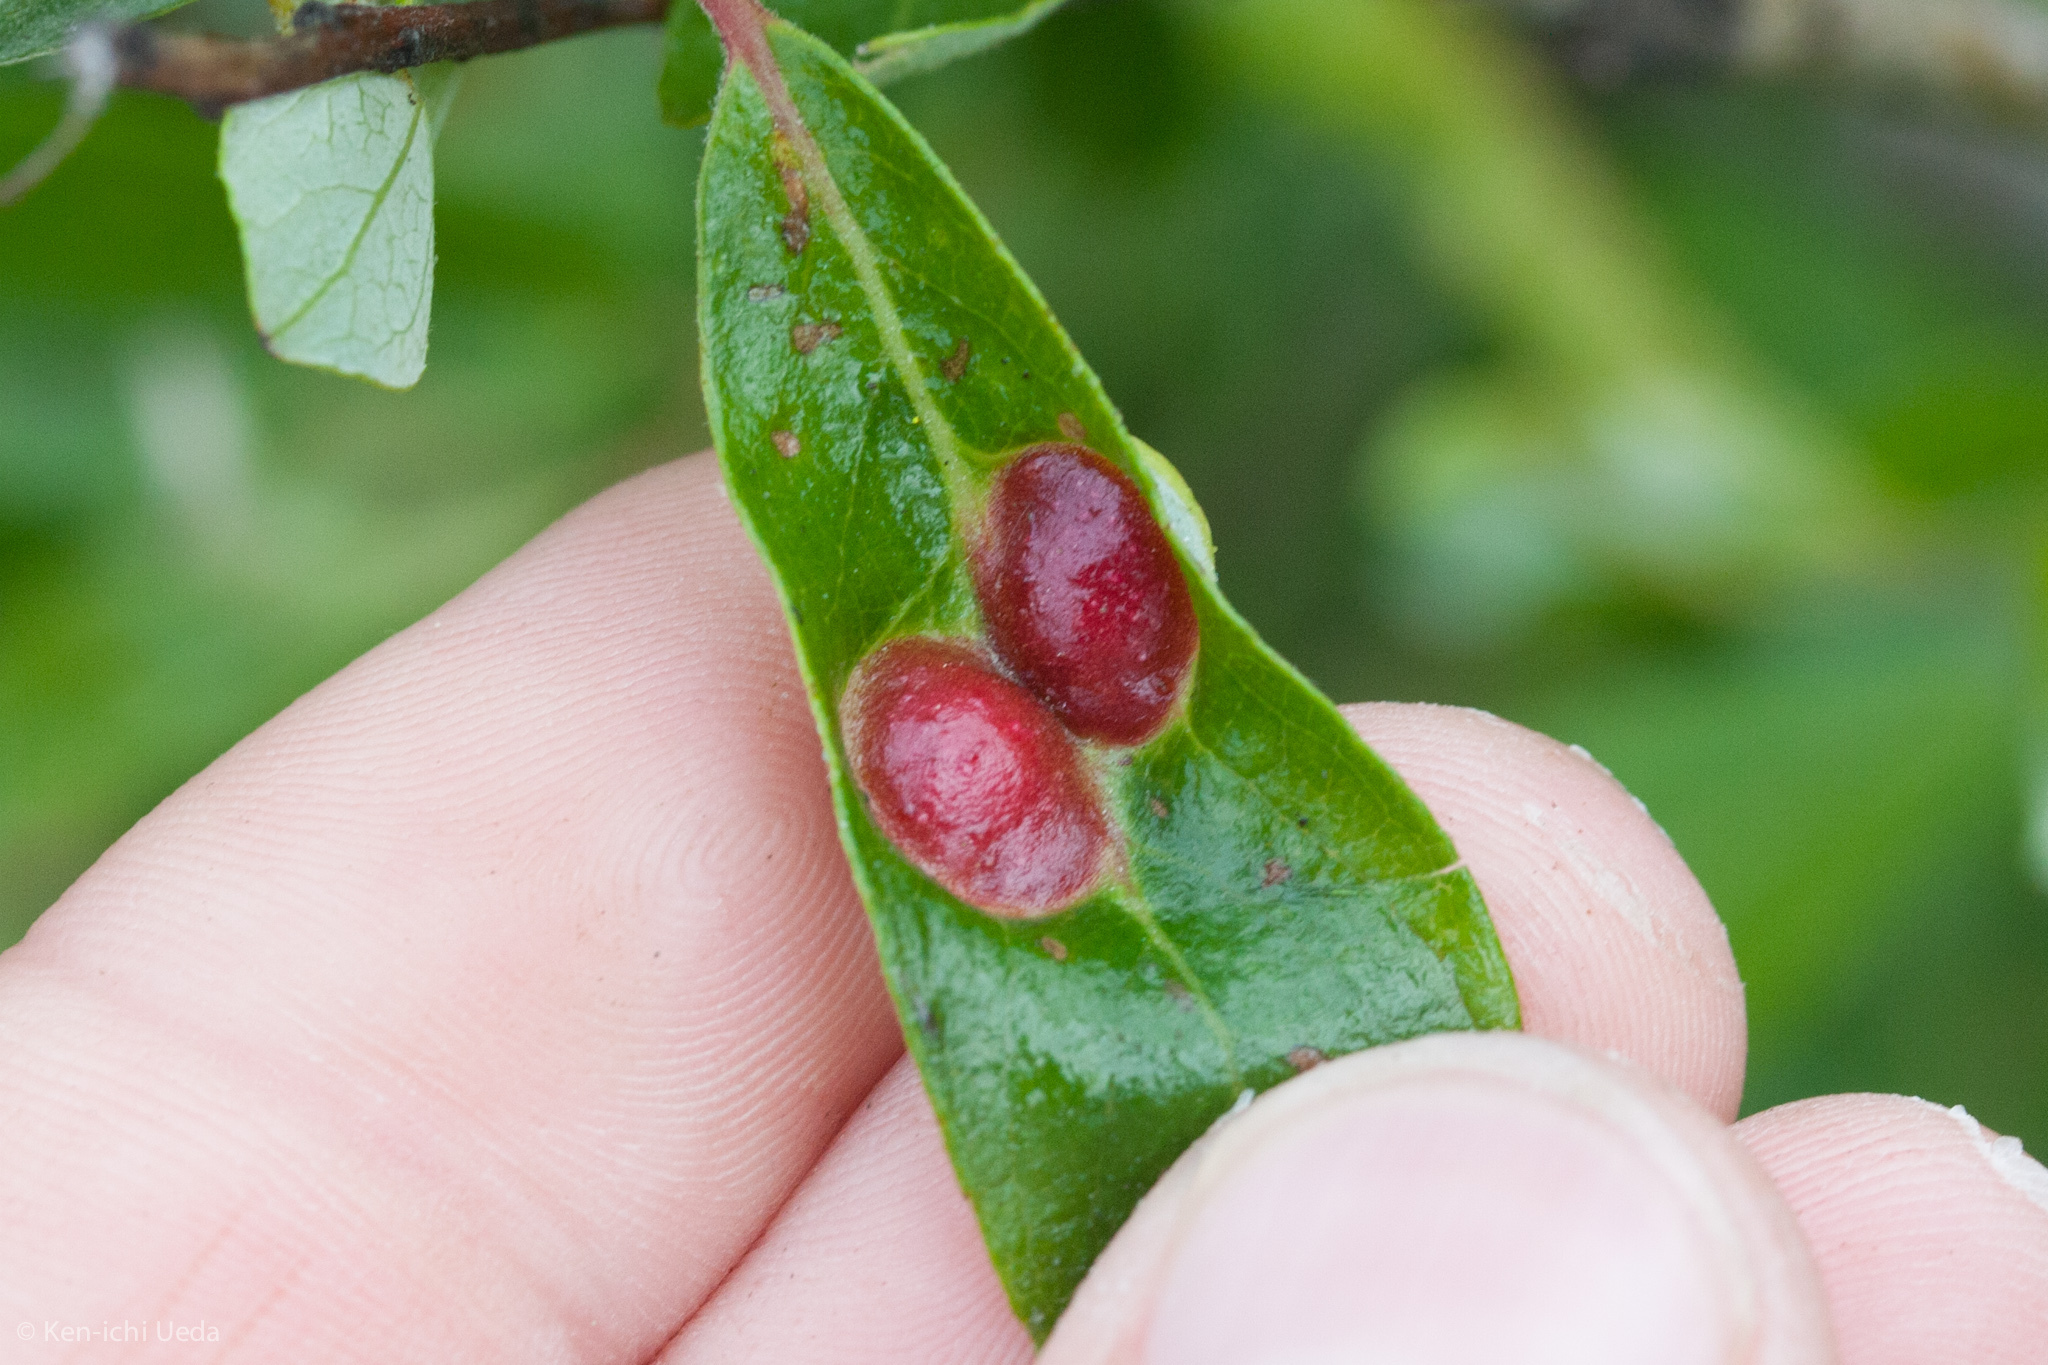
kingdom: Animalia
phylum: Arthropoda
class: Insecta
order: Hymenoptera
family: Tenthredinidae
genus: Euura
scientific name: Euura
